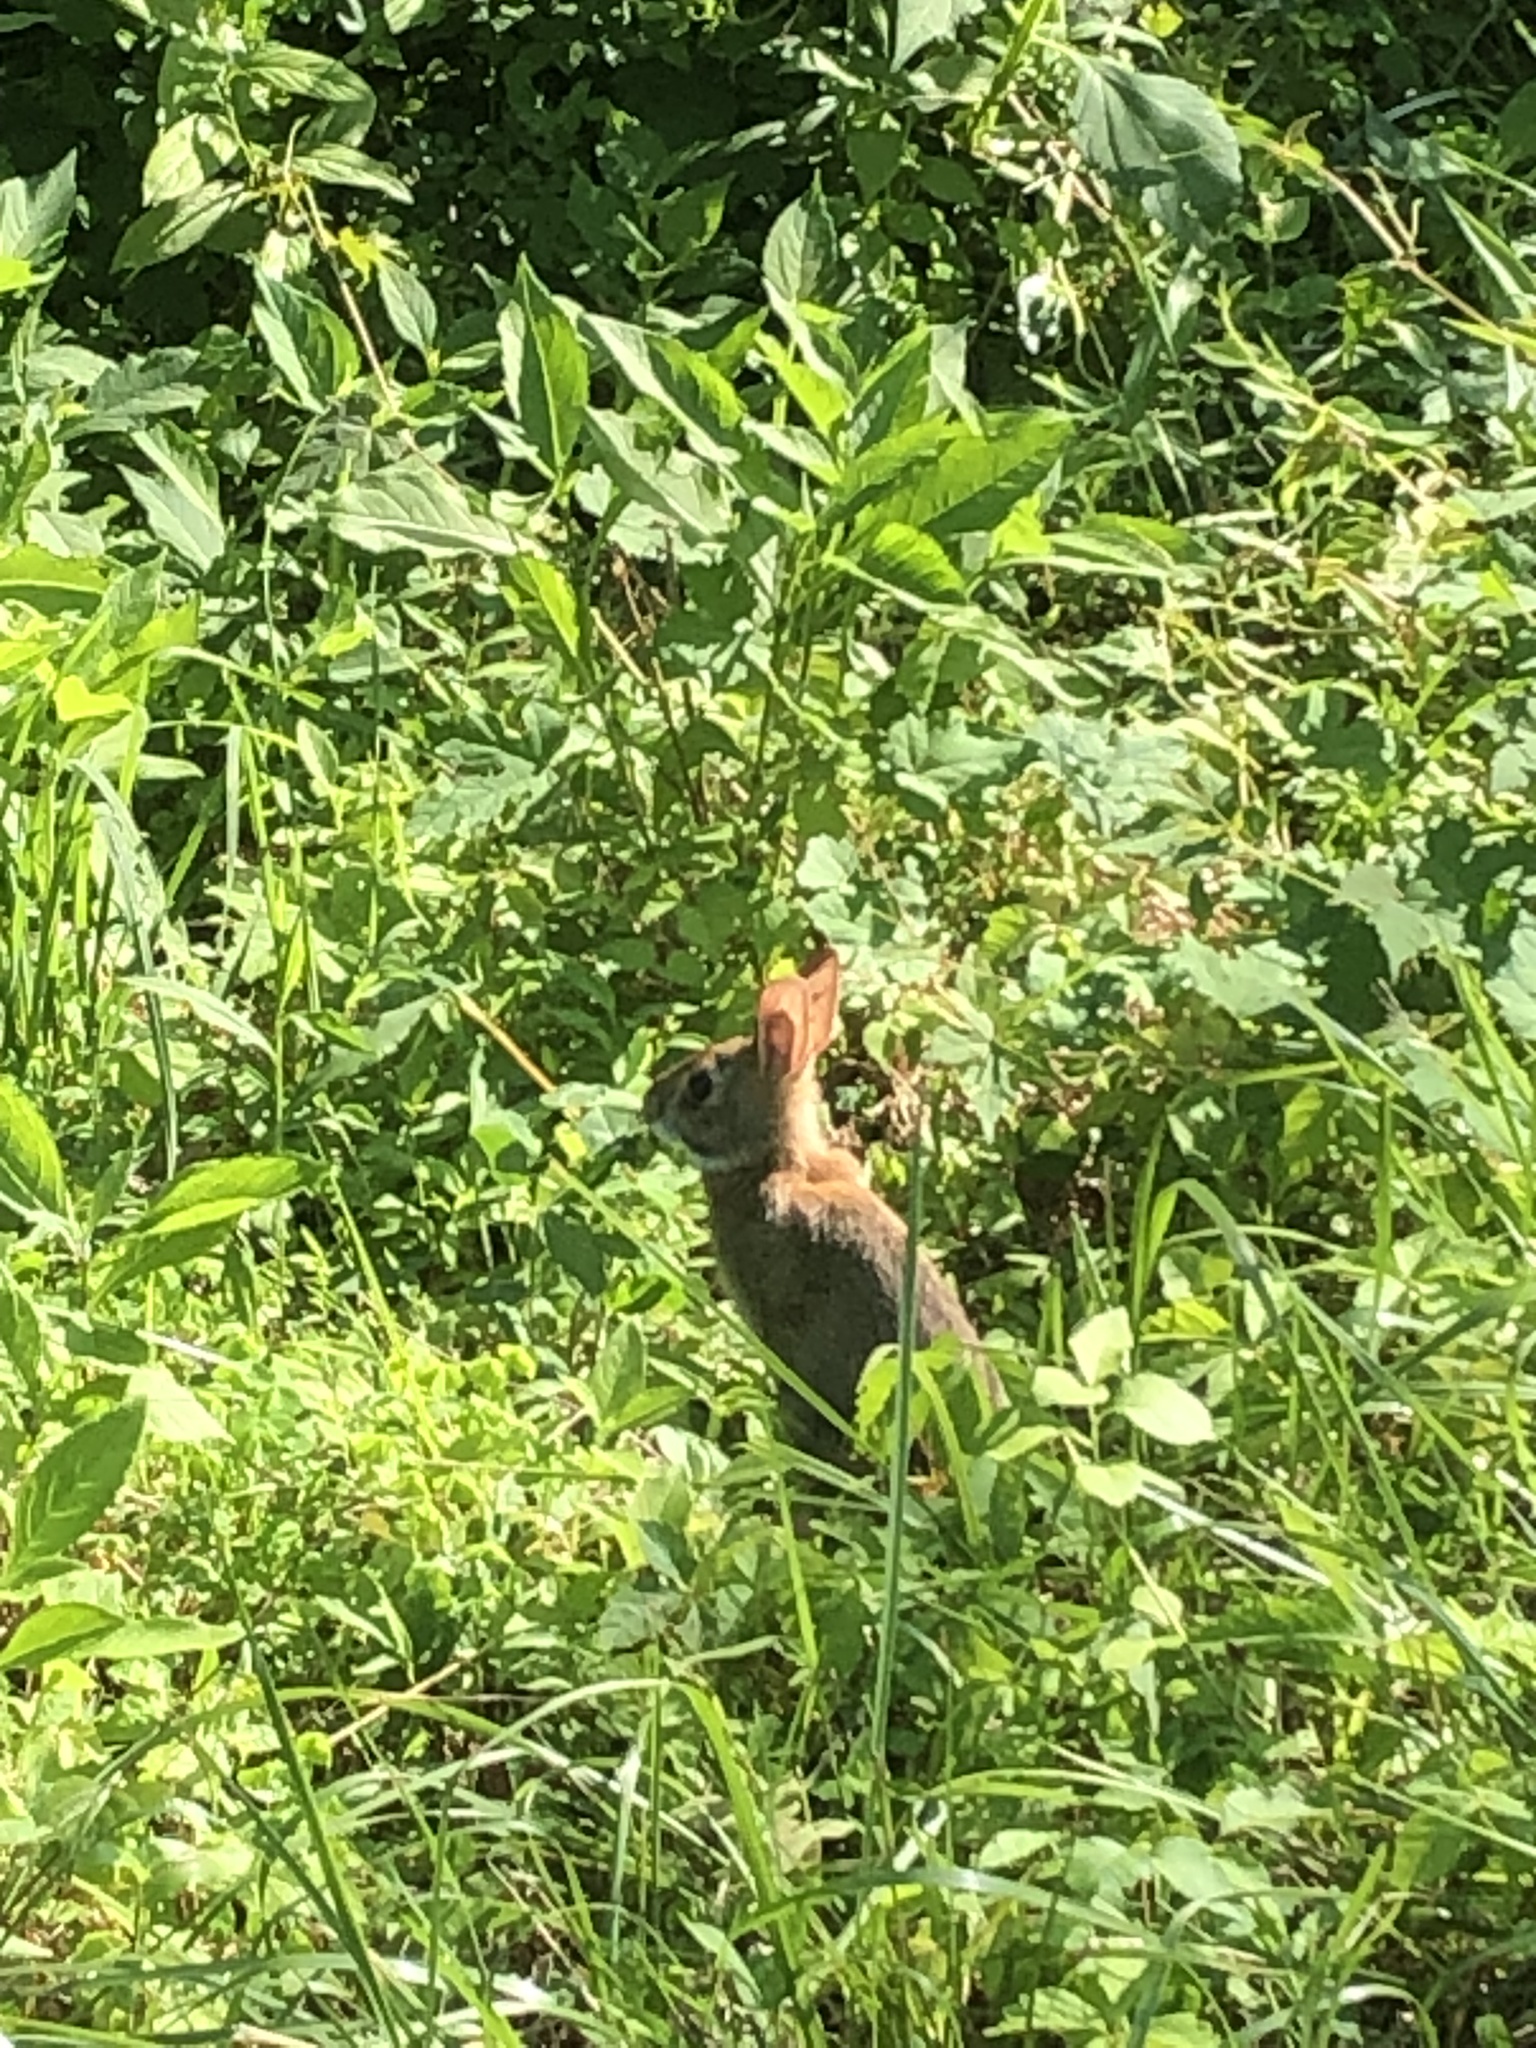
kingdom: Animalia
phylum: Chordata
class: Mammalia
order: Lagomorpha
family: Leporidae
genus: Sylvilagus
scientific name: Sylvilagus floridanus
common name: Eastern cottontail
